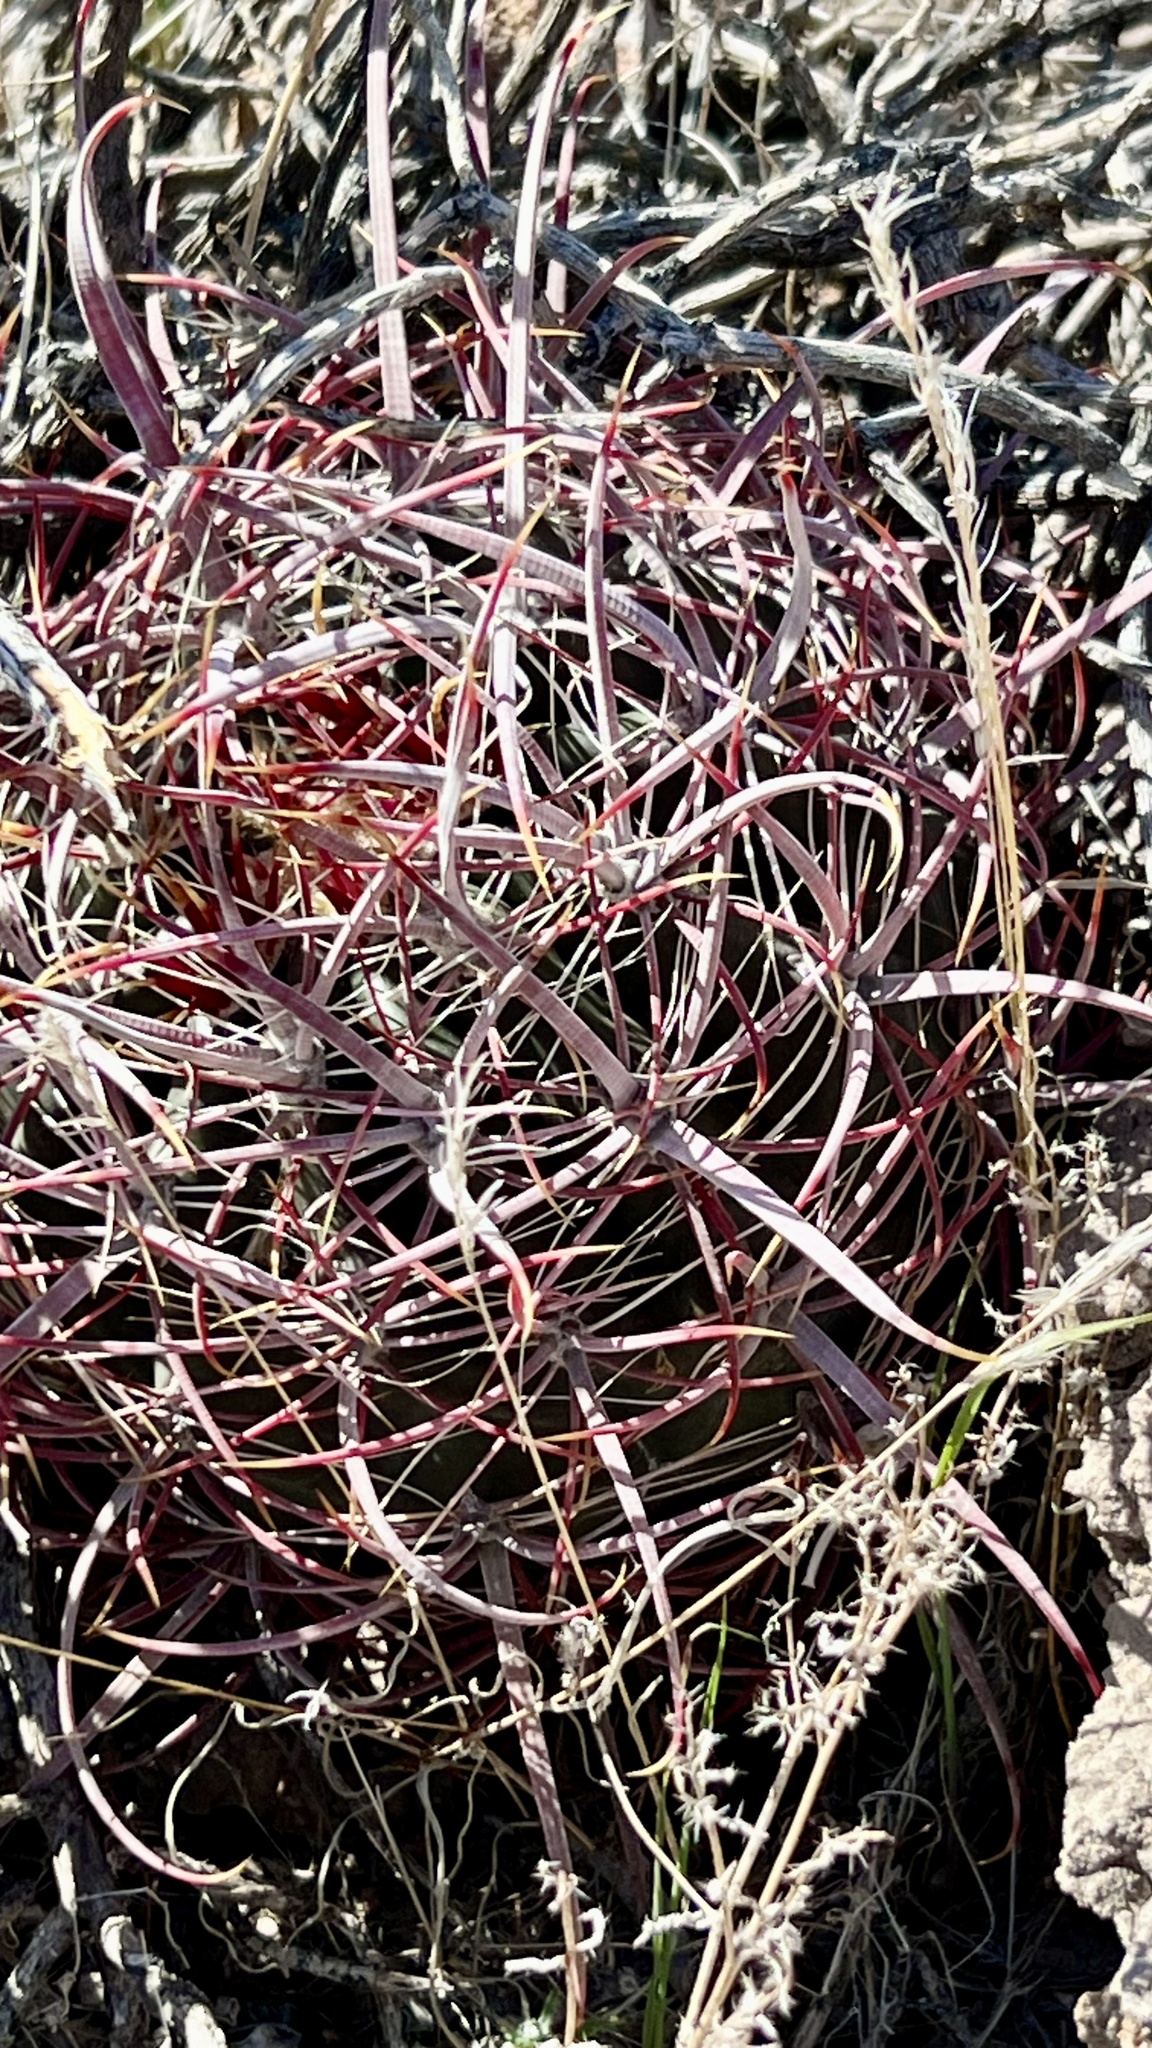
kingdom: Plantae
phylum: Tracheophyta
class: Magnoliopsida
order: Caryophyllales
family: Cactaceae
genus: Ferocactus
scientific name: Ferocactus cylindraceus
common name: California barrel cactus
